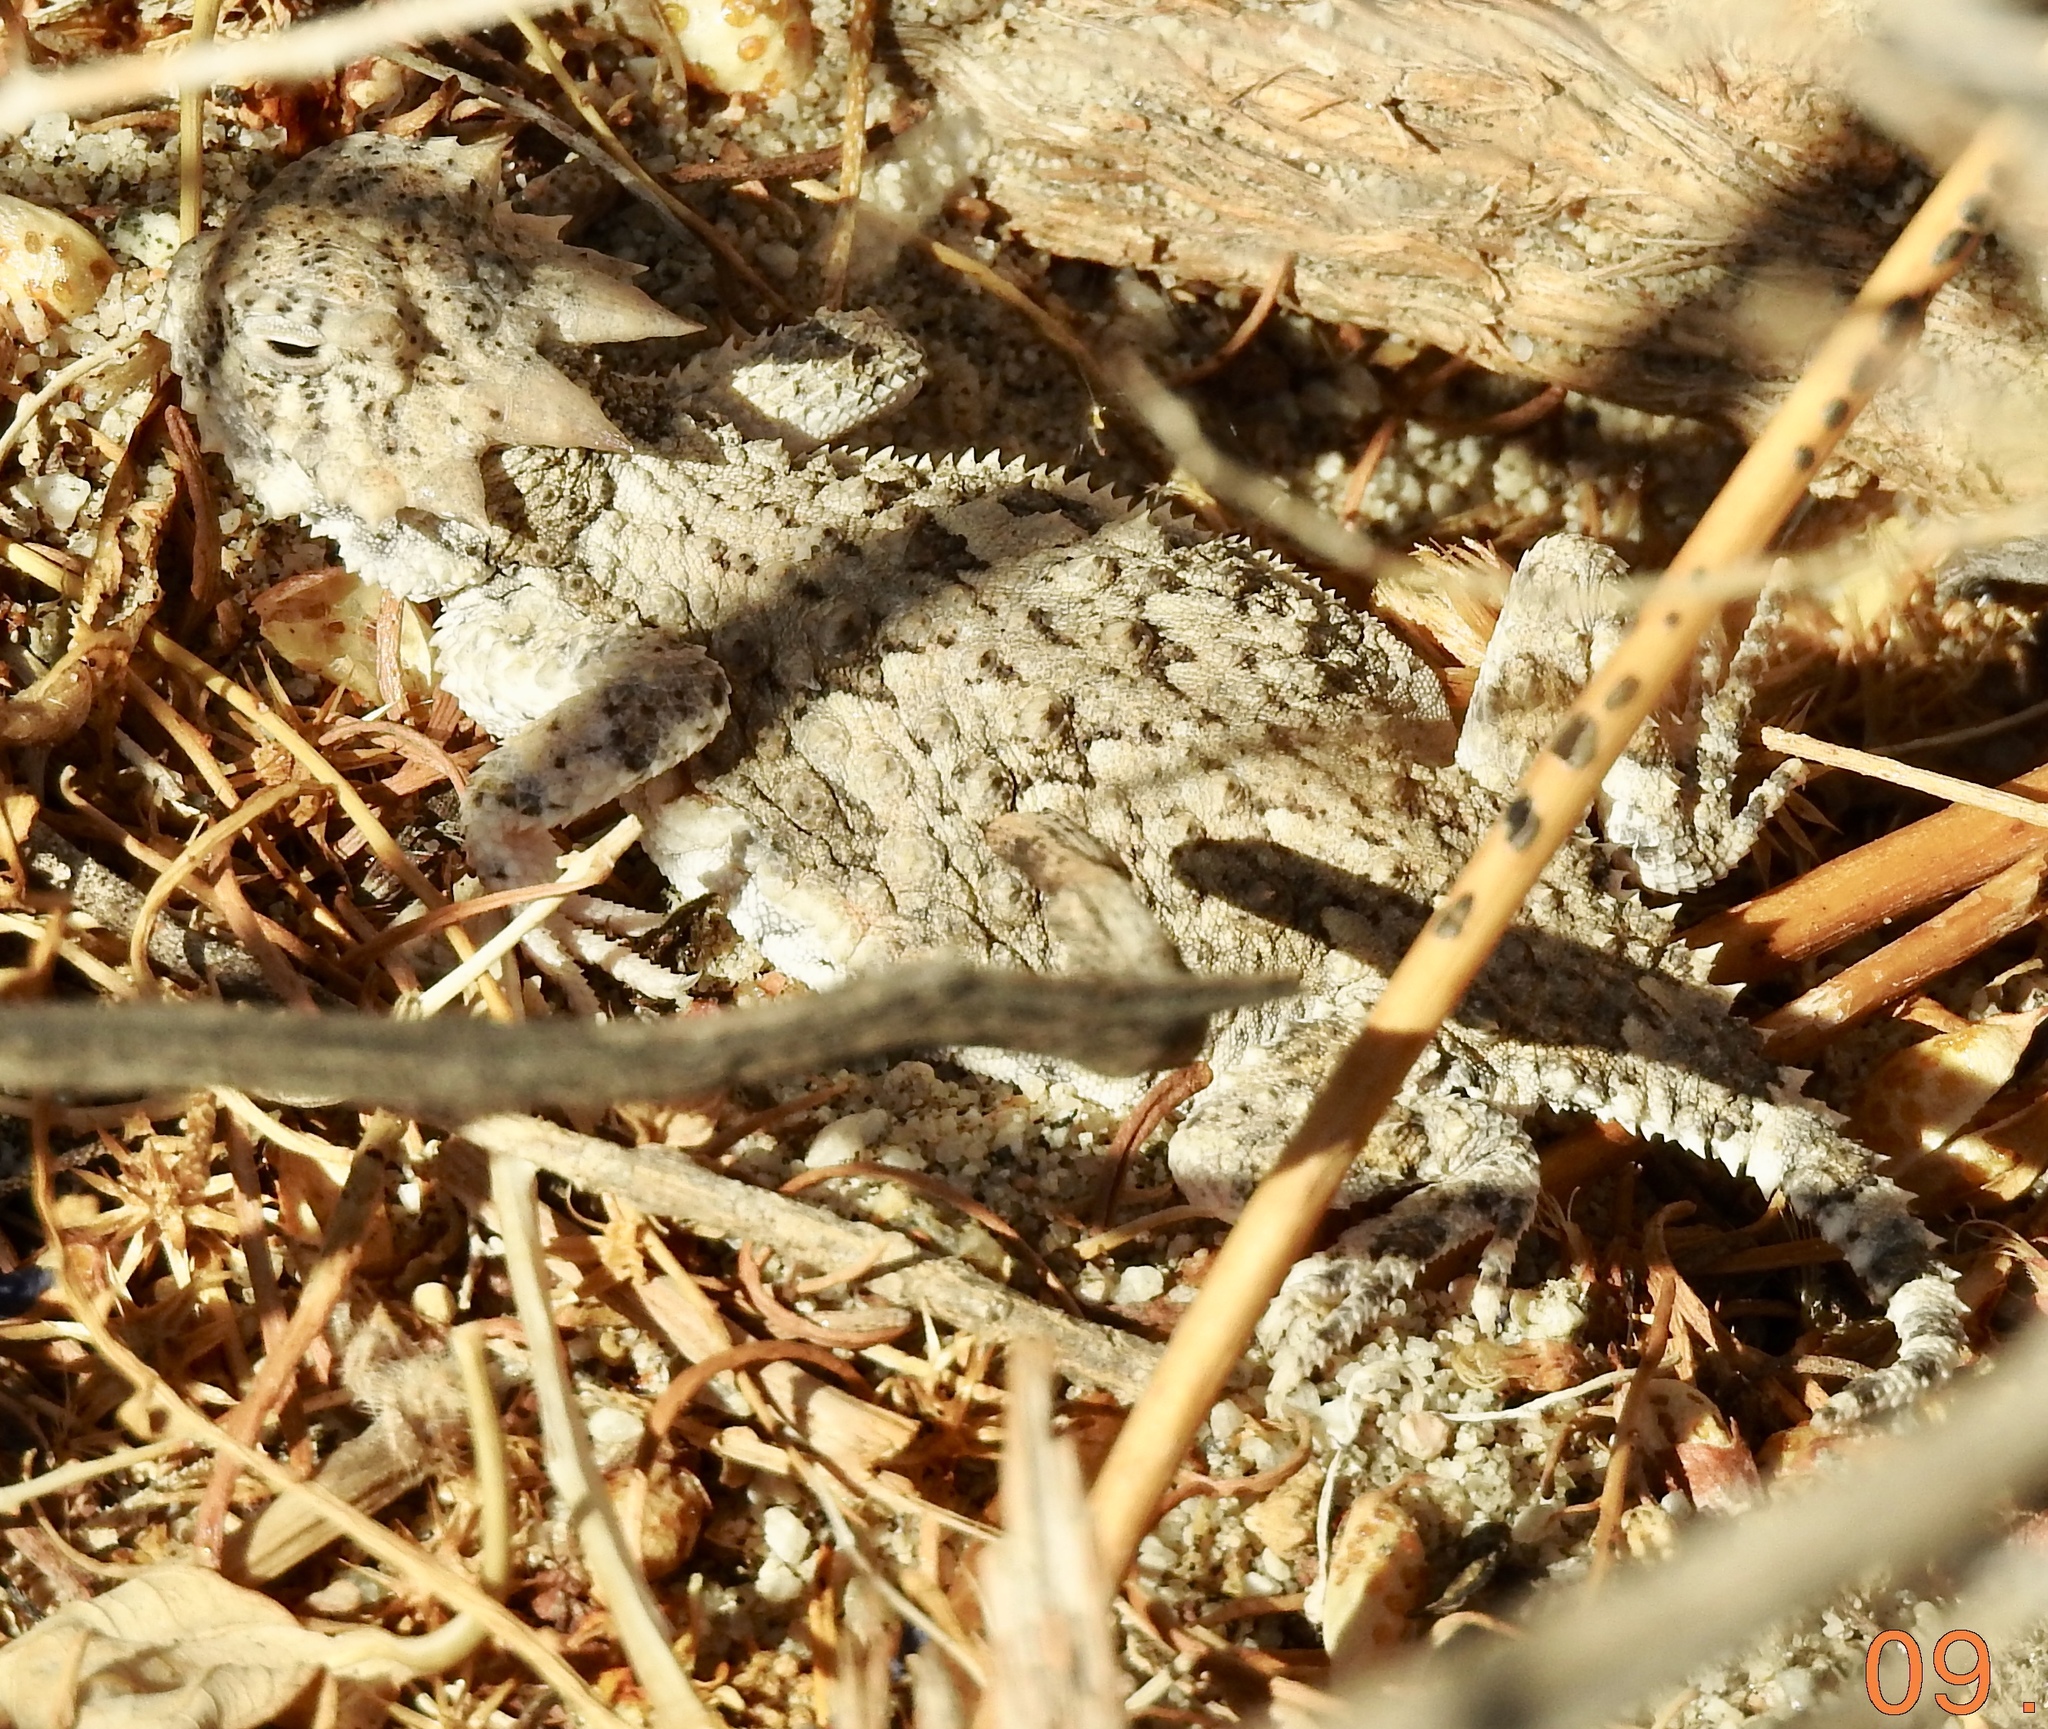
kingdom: Animalia
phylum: Chordata
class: Squamata
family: Phrynosomatidae
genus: Phrynosoma
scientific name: Phrynosoma platyrhinos
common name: Desert horned lizard
